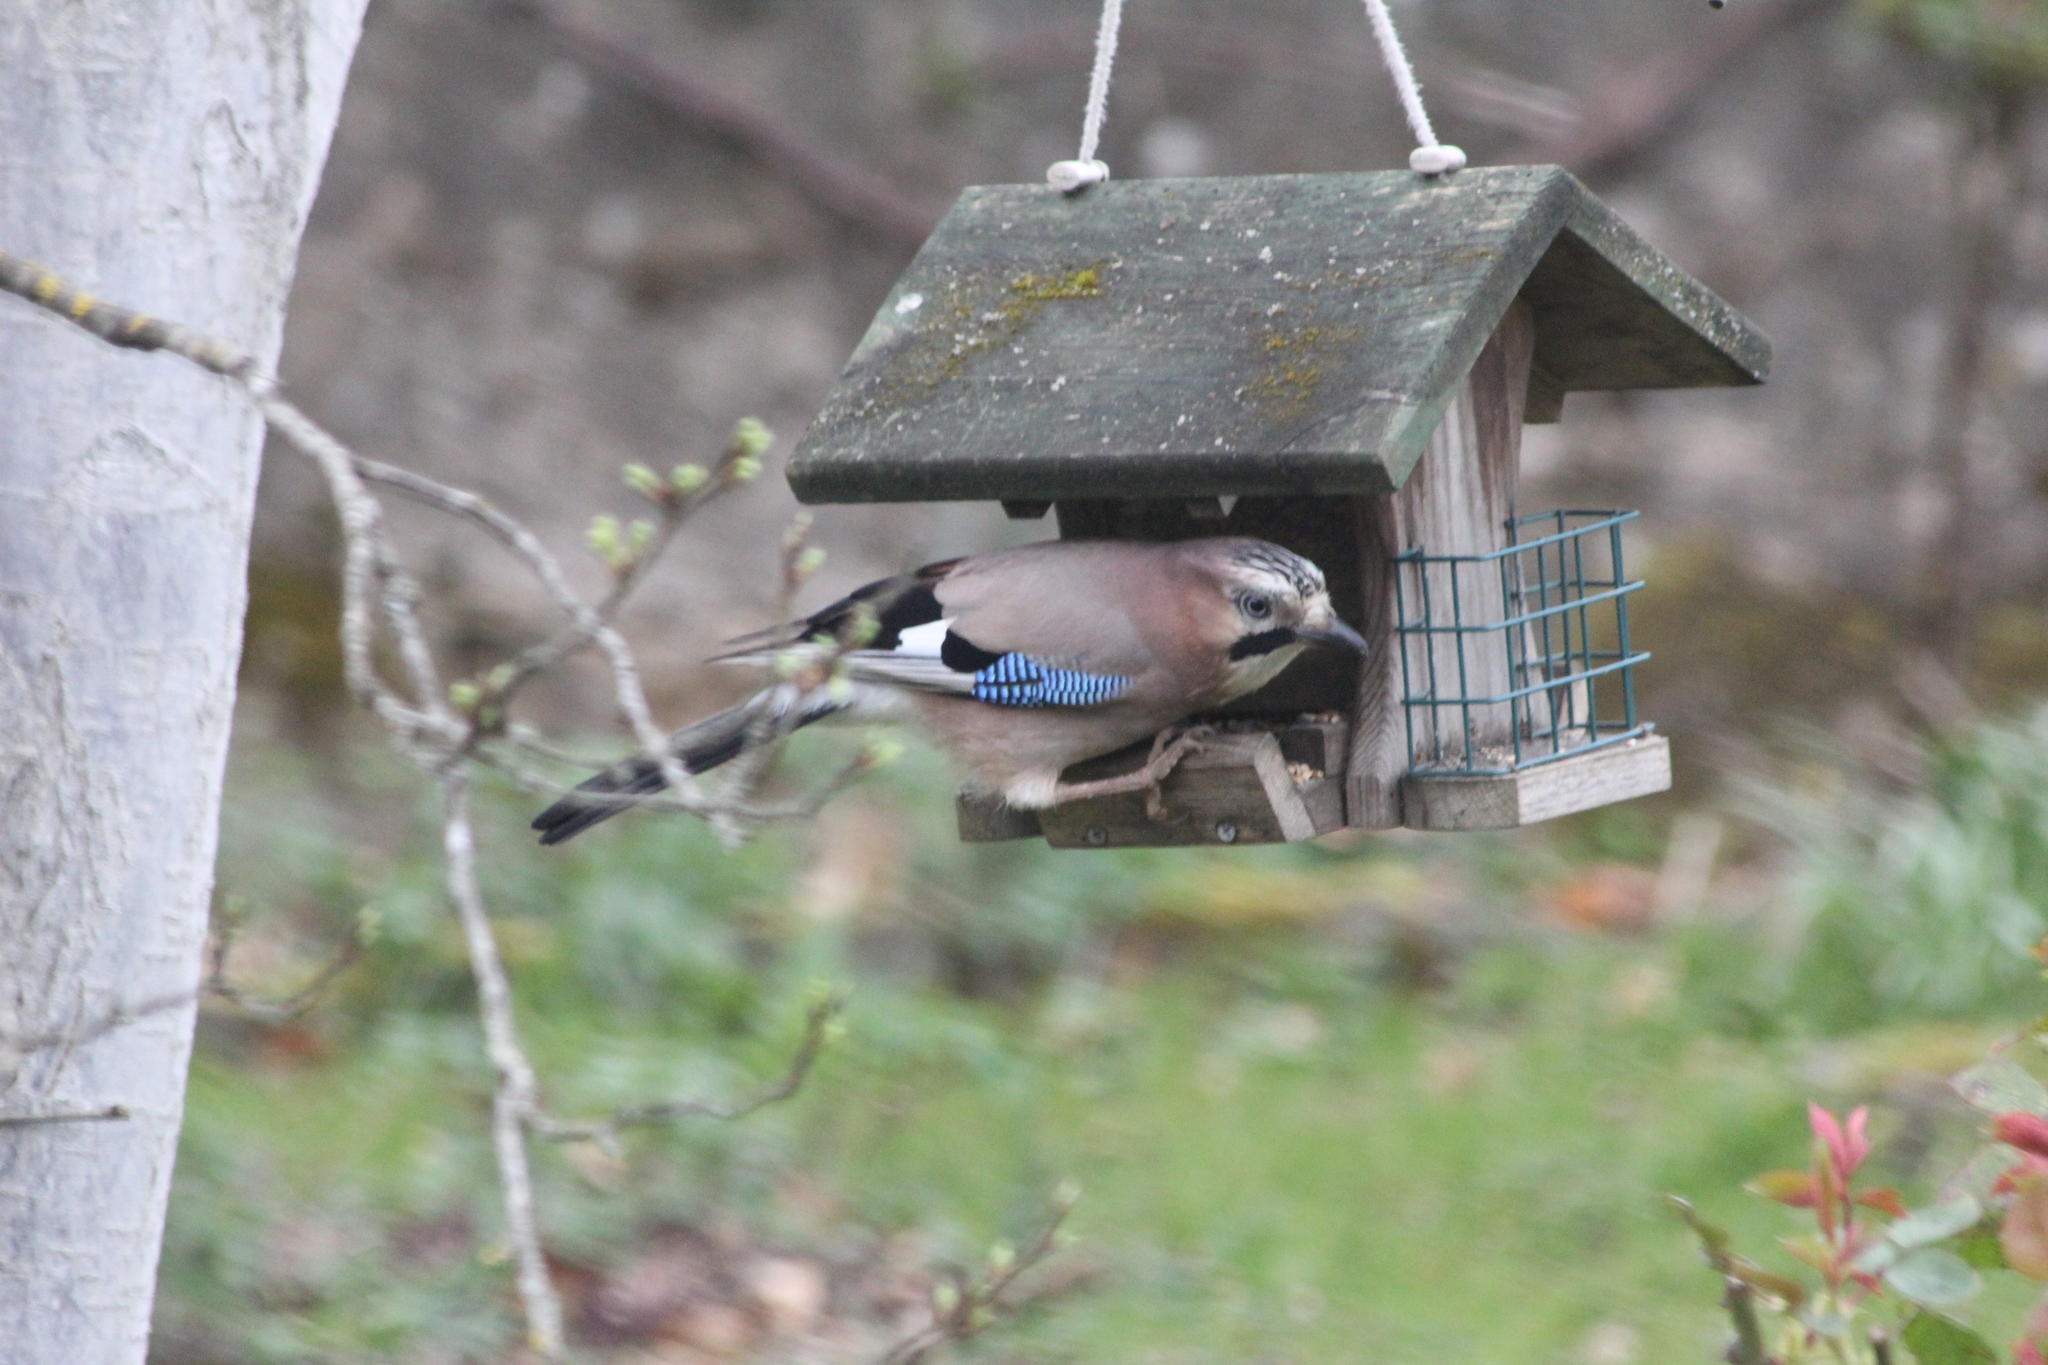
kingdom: Animalia
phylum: Chordata
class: Aves
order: Passeriformes
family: Corvidae
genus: Garrulus
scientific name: Garrulus glandarius
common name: Eurasian jay
